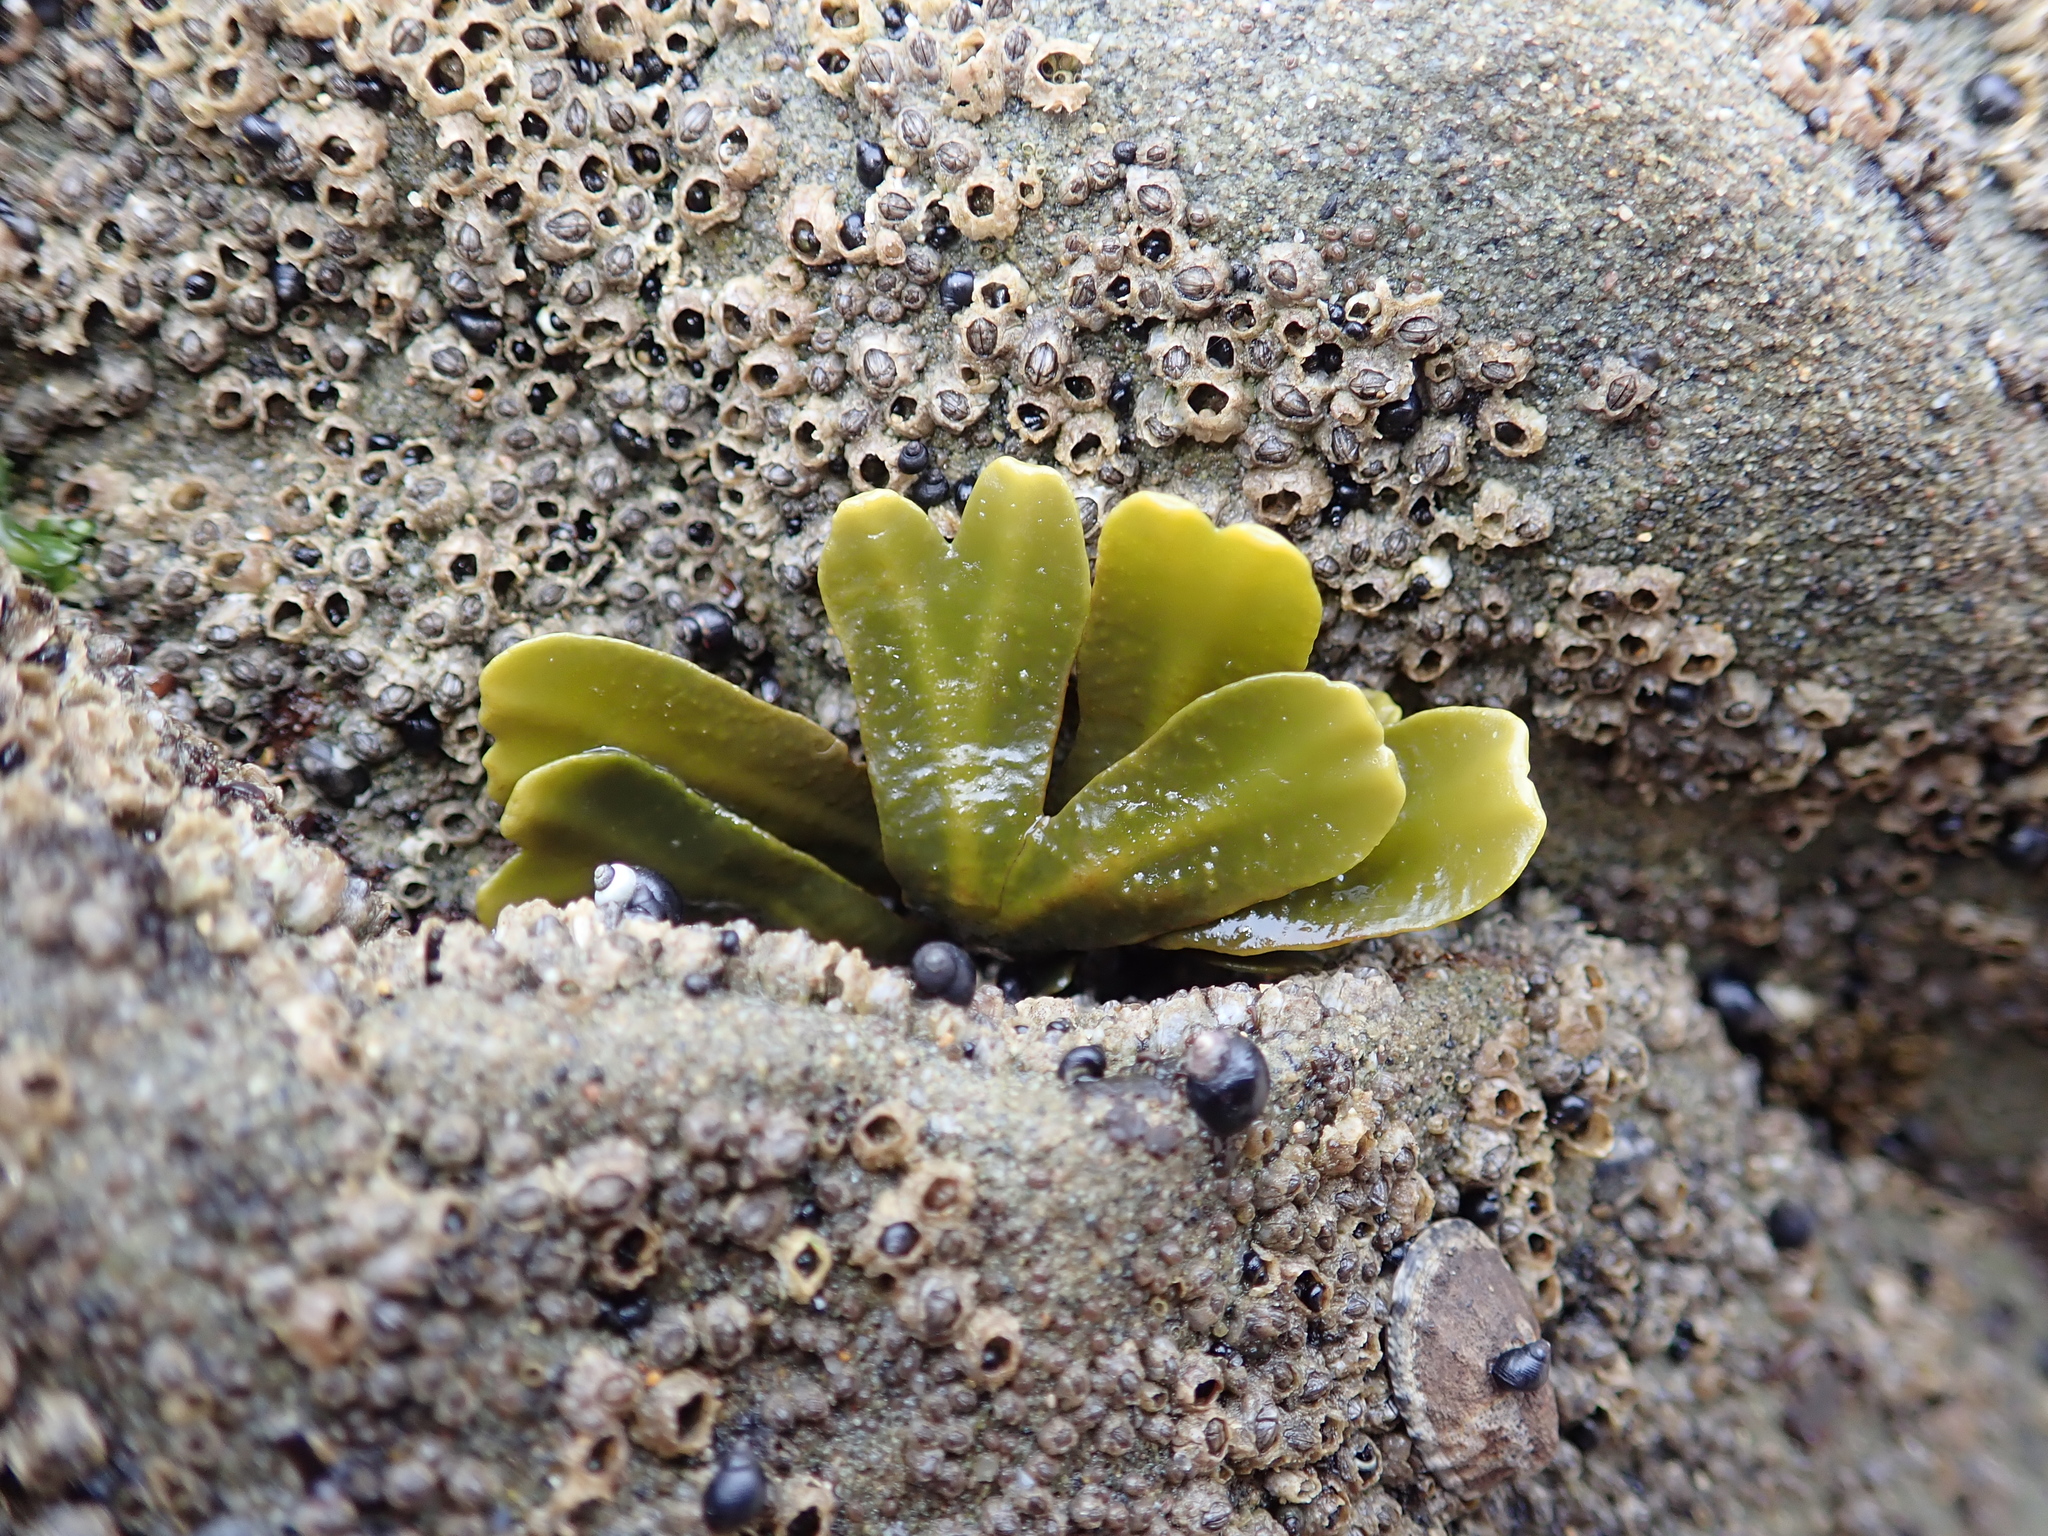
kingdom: Chromista
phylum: Ochrophyta
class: Phaeophyceae
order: Fucales
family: Fucaceae
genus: Fucus
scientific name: Fucus distichus
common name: Rockweed
